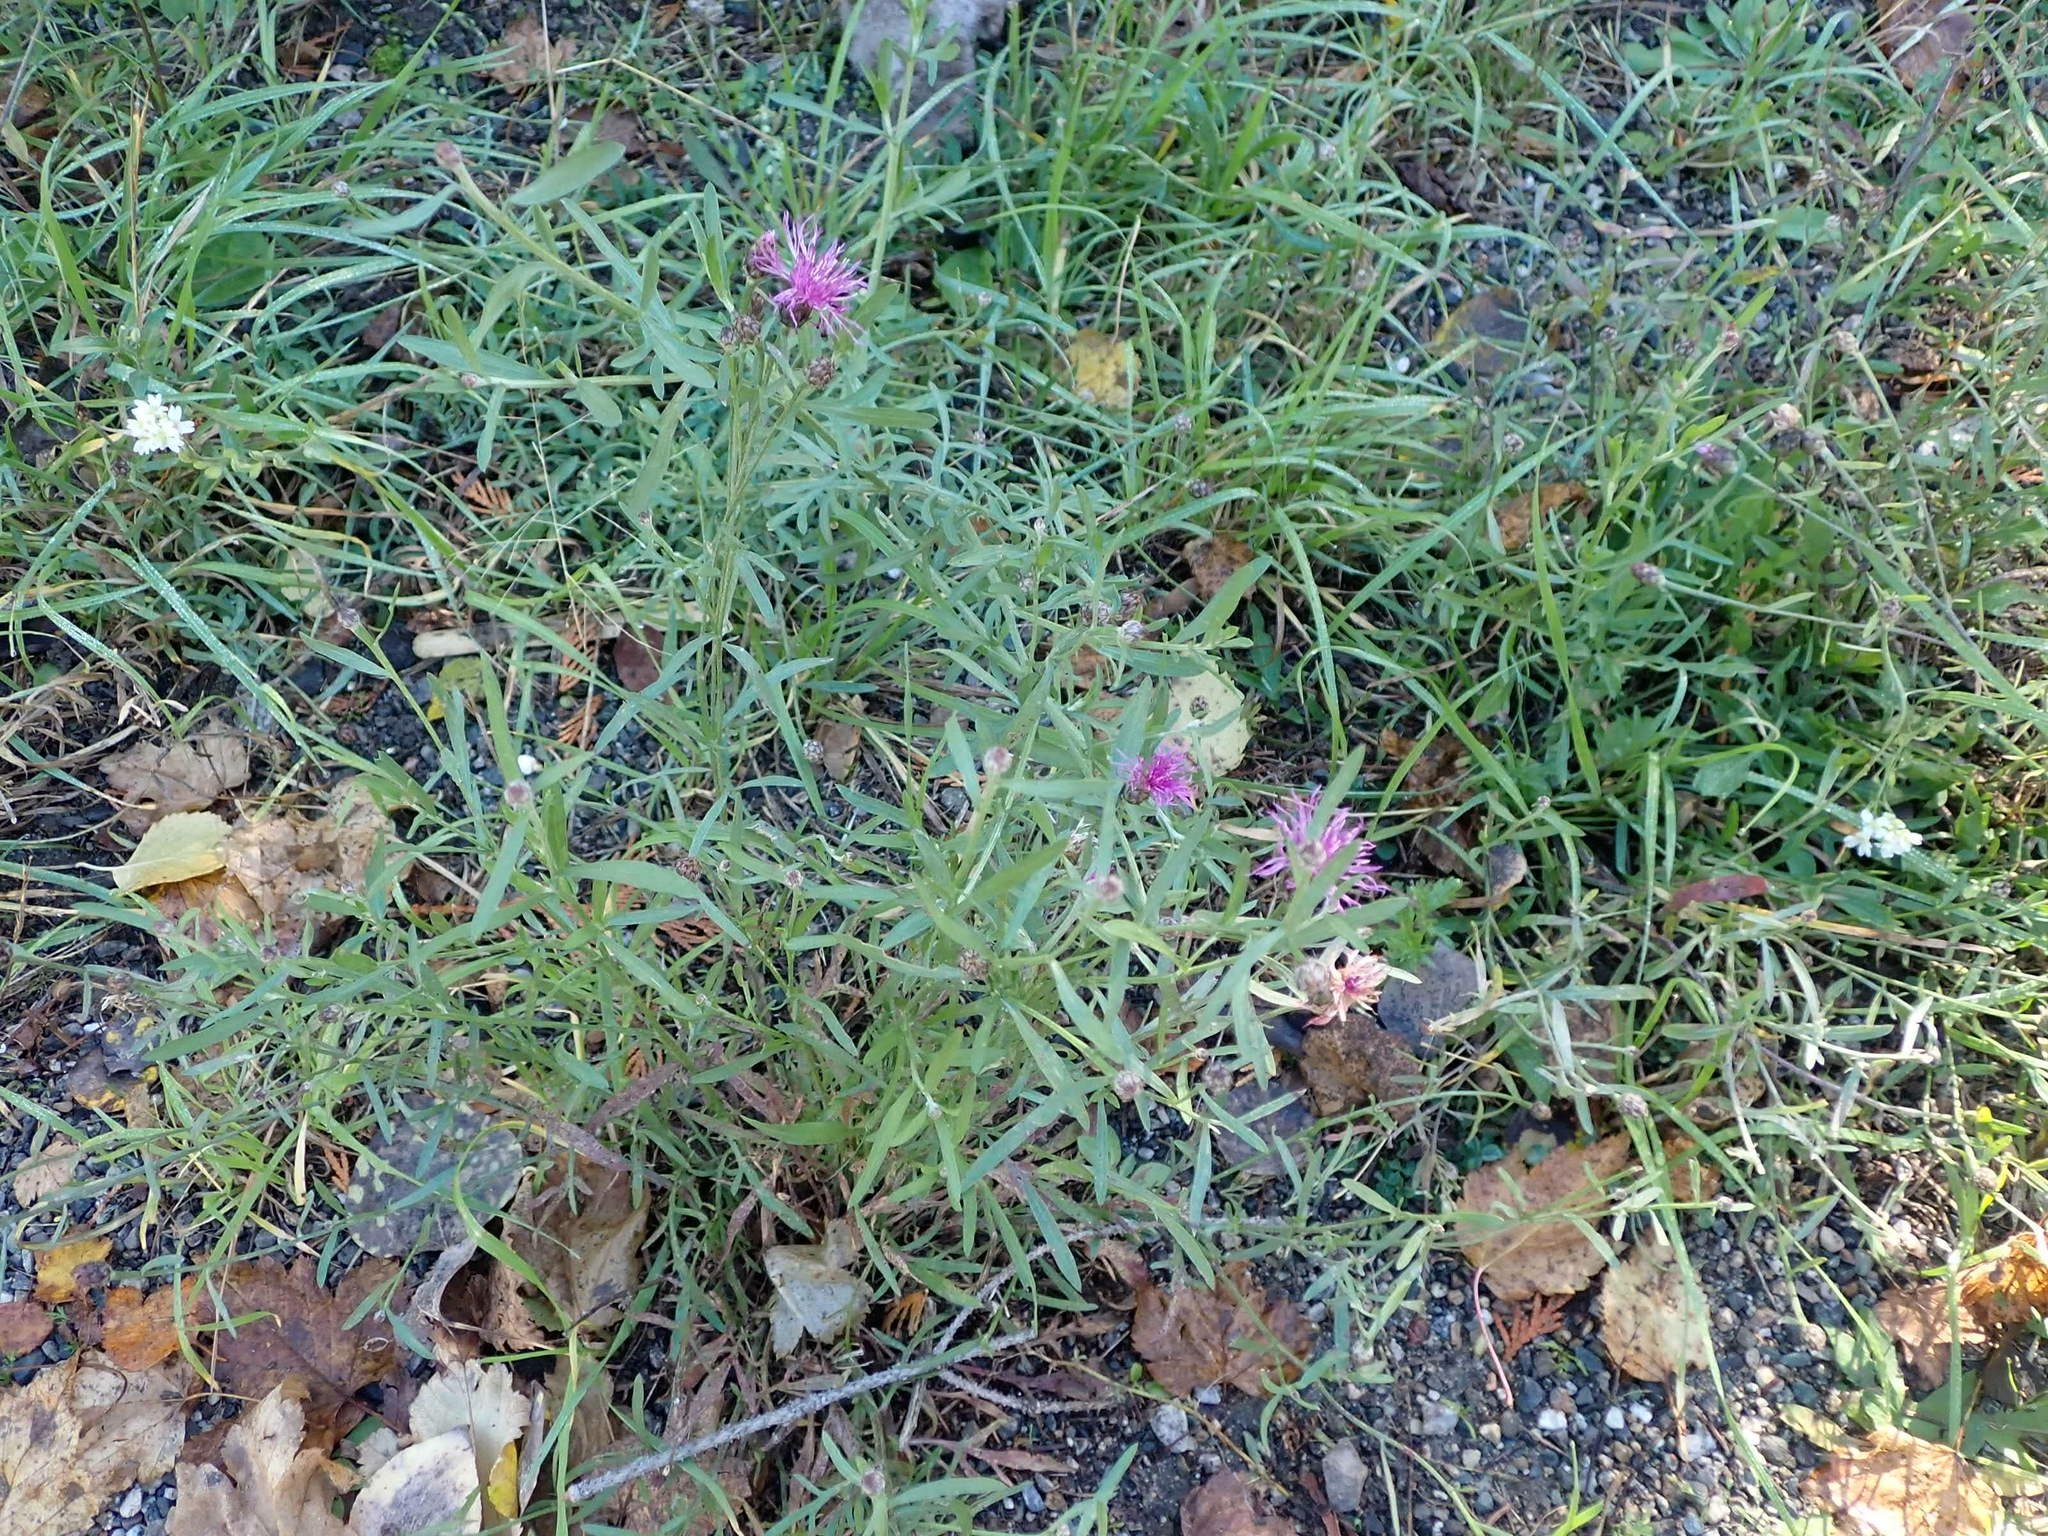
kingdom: Plantae
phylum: Tracheophyta
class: Magnoliopsida
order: Asterales
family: Asteraceae
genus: Centaurea
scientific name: Centaurea stoebe
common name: Spotted knapweed
